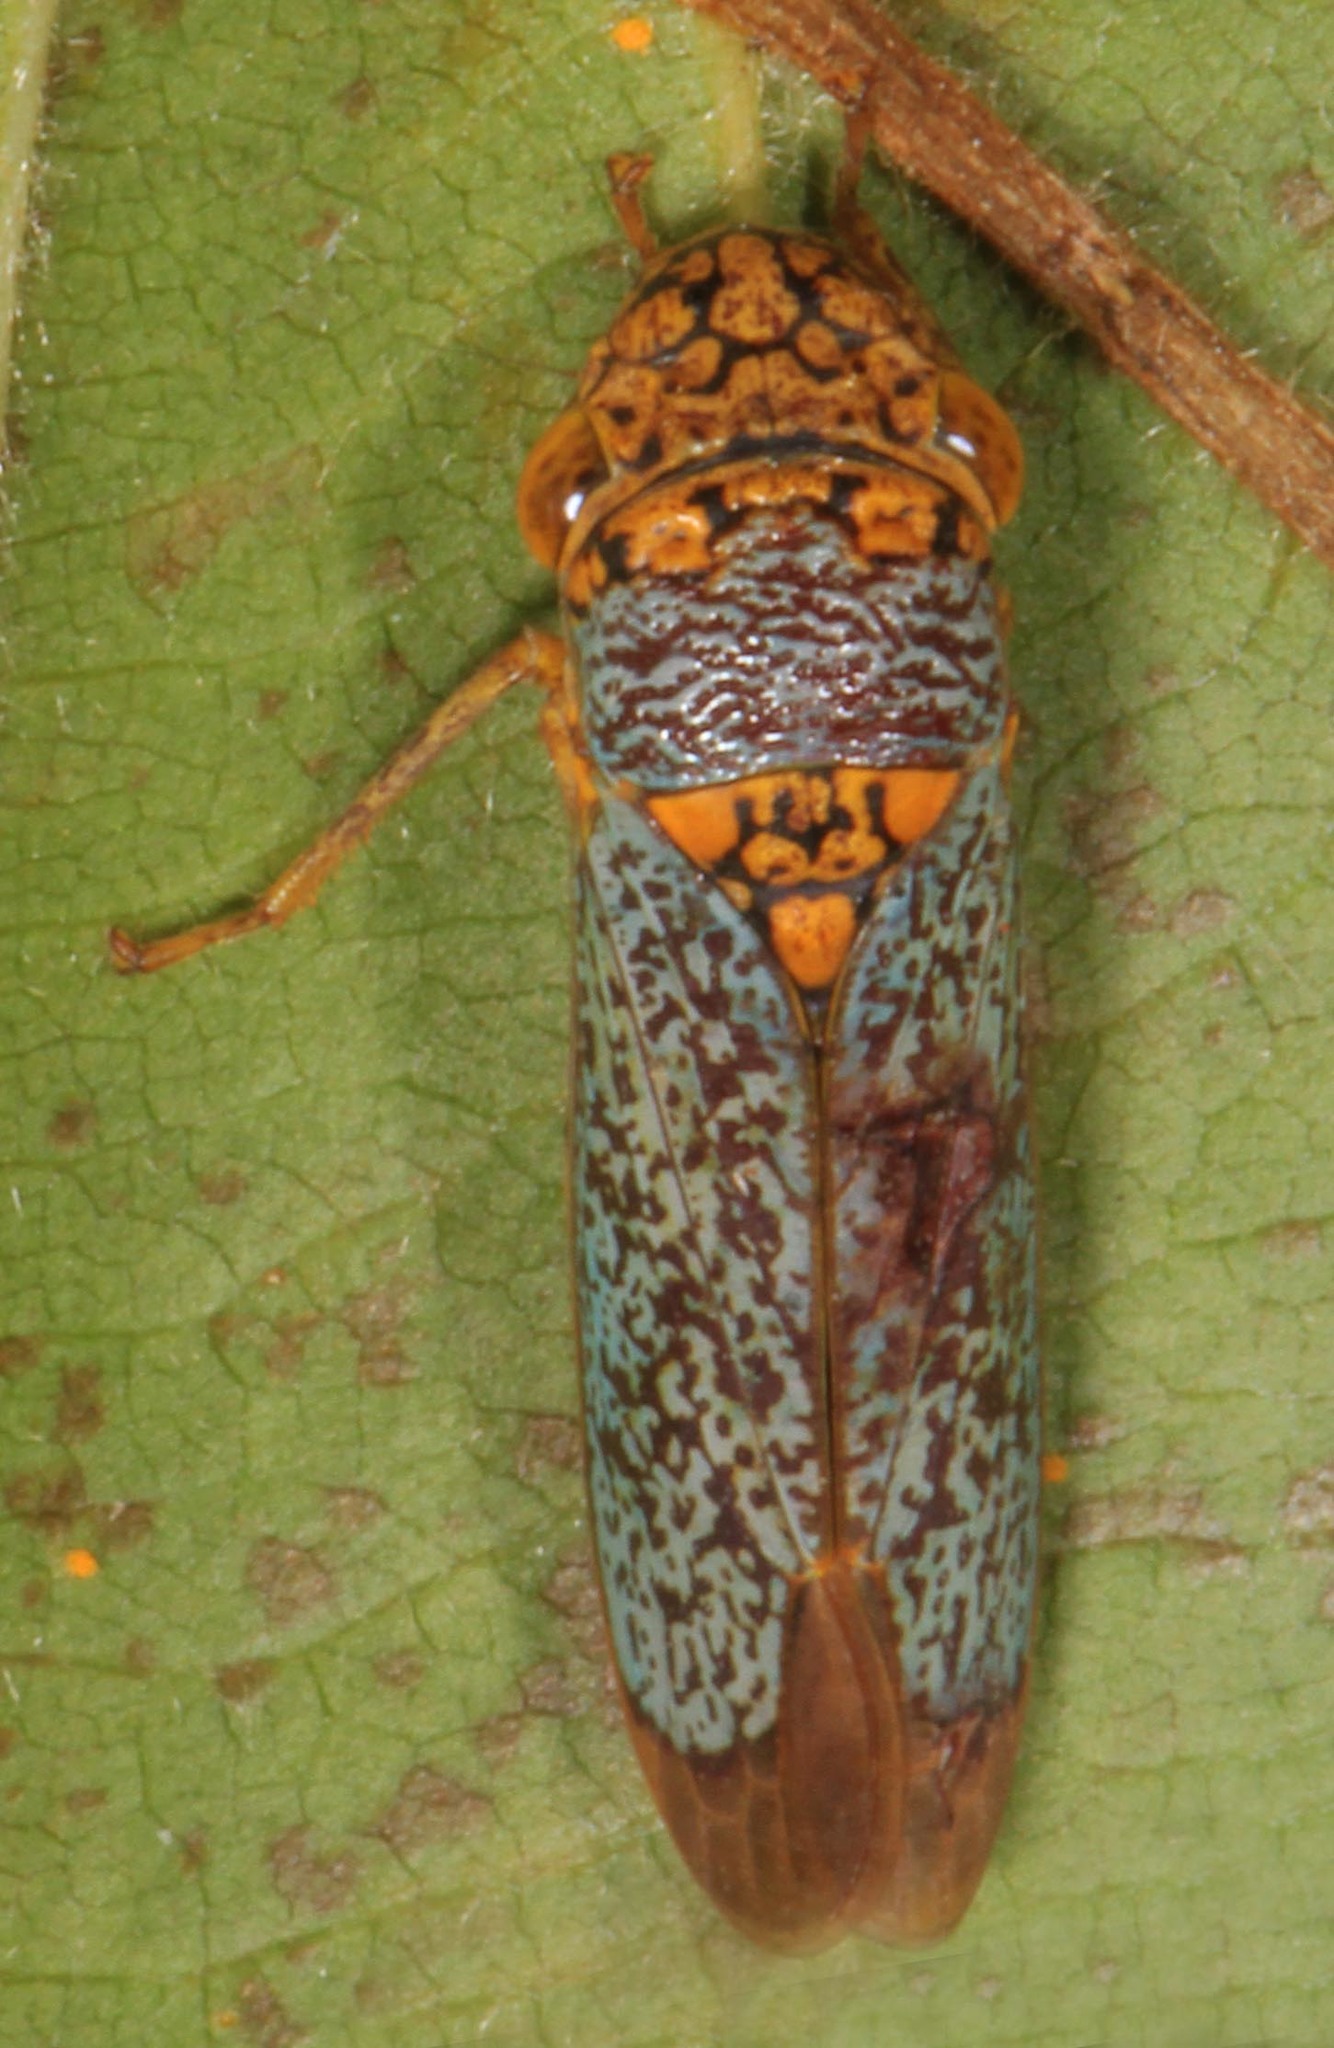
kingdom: Animalia
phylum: Arthropoda
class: Insecta
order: Hemiptera
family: Cicadellidae
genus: Oncometopia
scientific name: Oncometopia orbona
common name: Broad-headed sharpshooter
